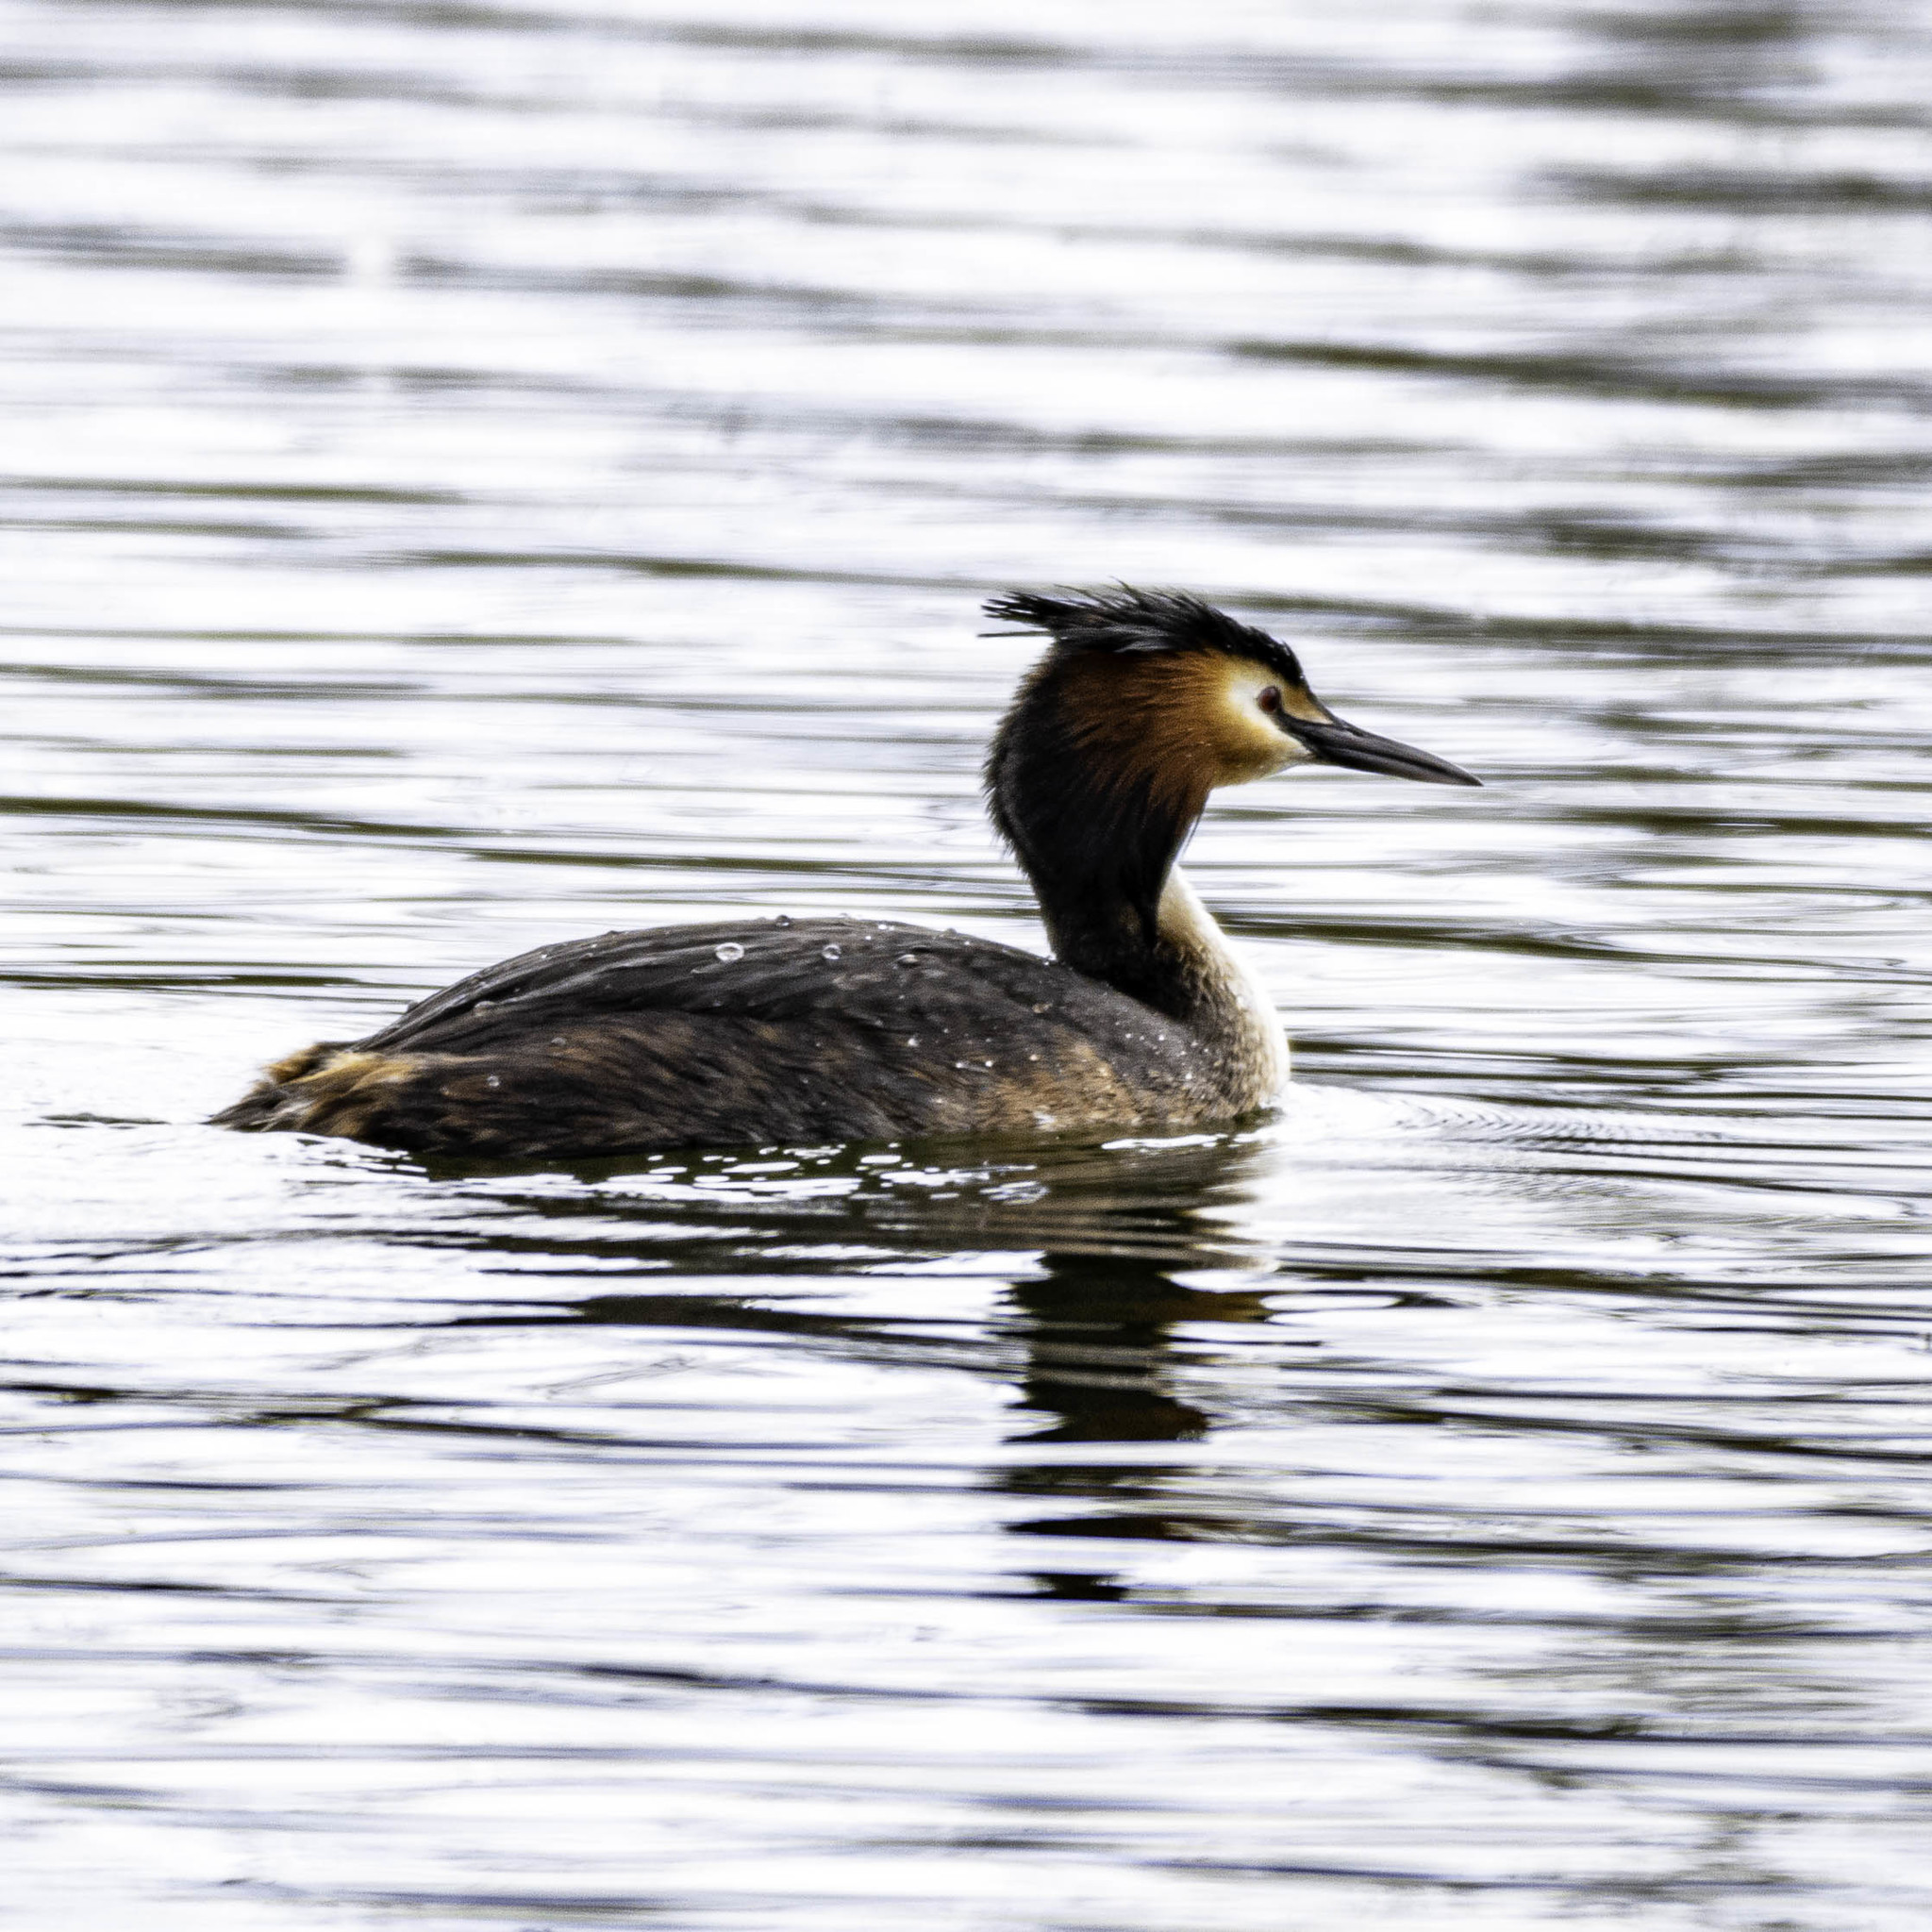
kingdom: Animalia
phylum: Chordata
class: Aves
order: Podicipediformes
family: Podicipedidae
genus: Podiceps
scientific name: Podiceps cristatus
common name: Great crested grebe
